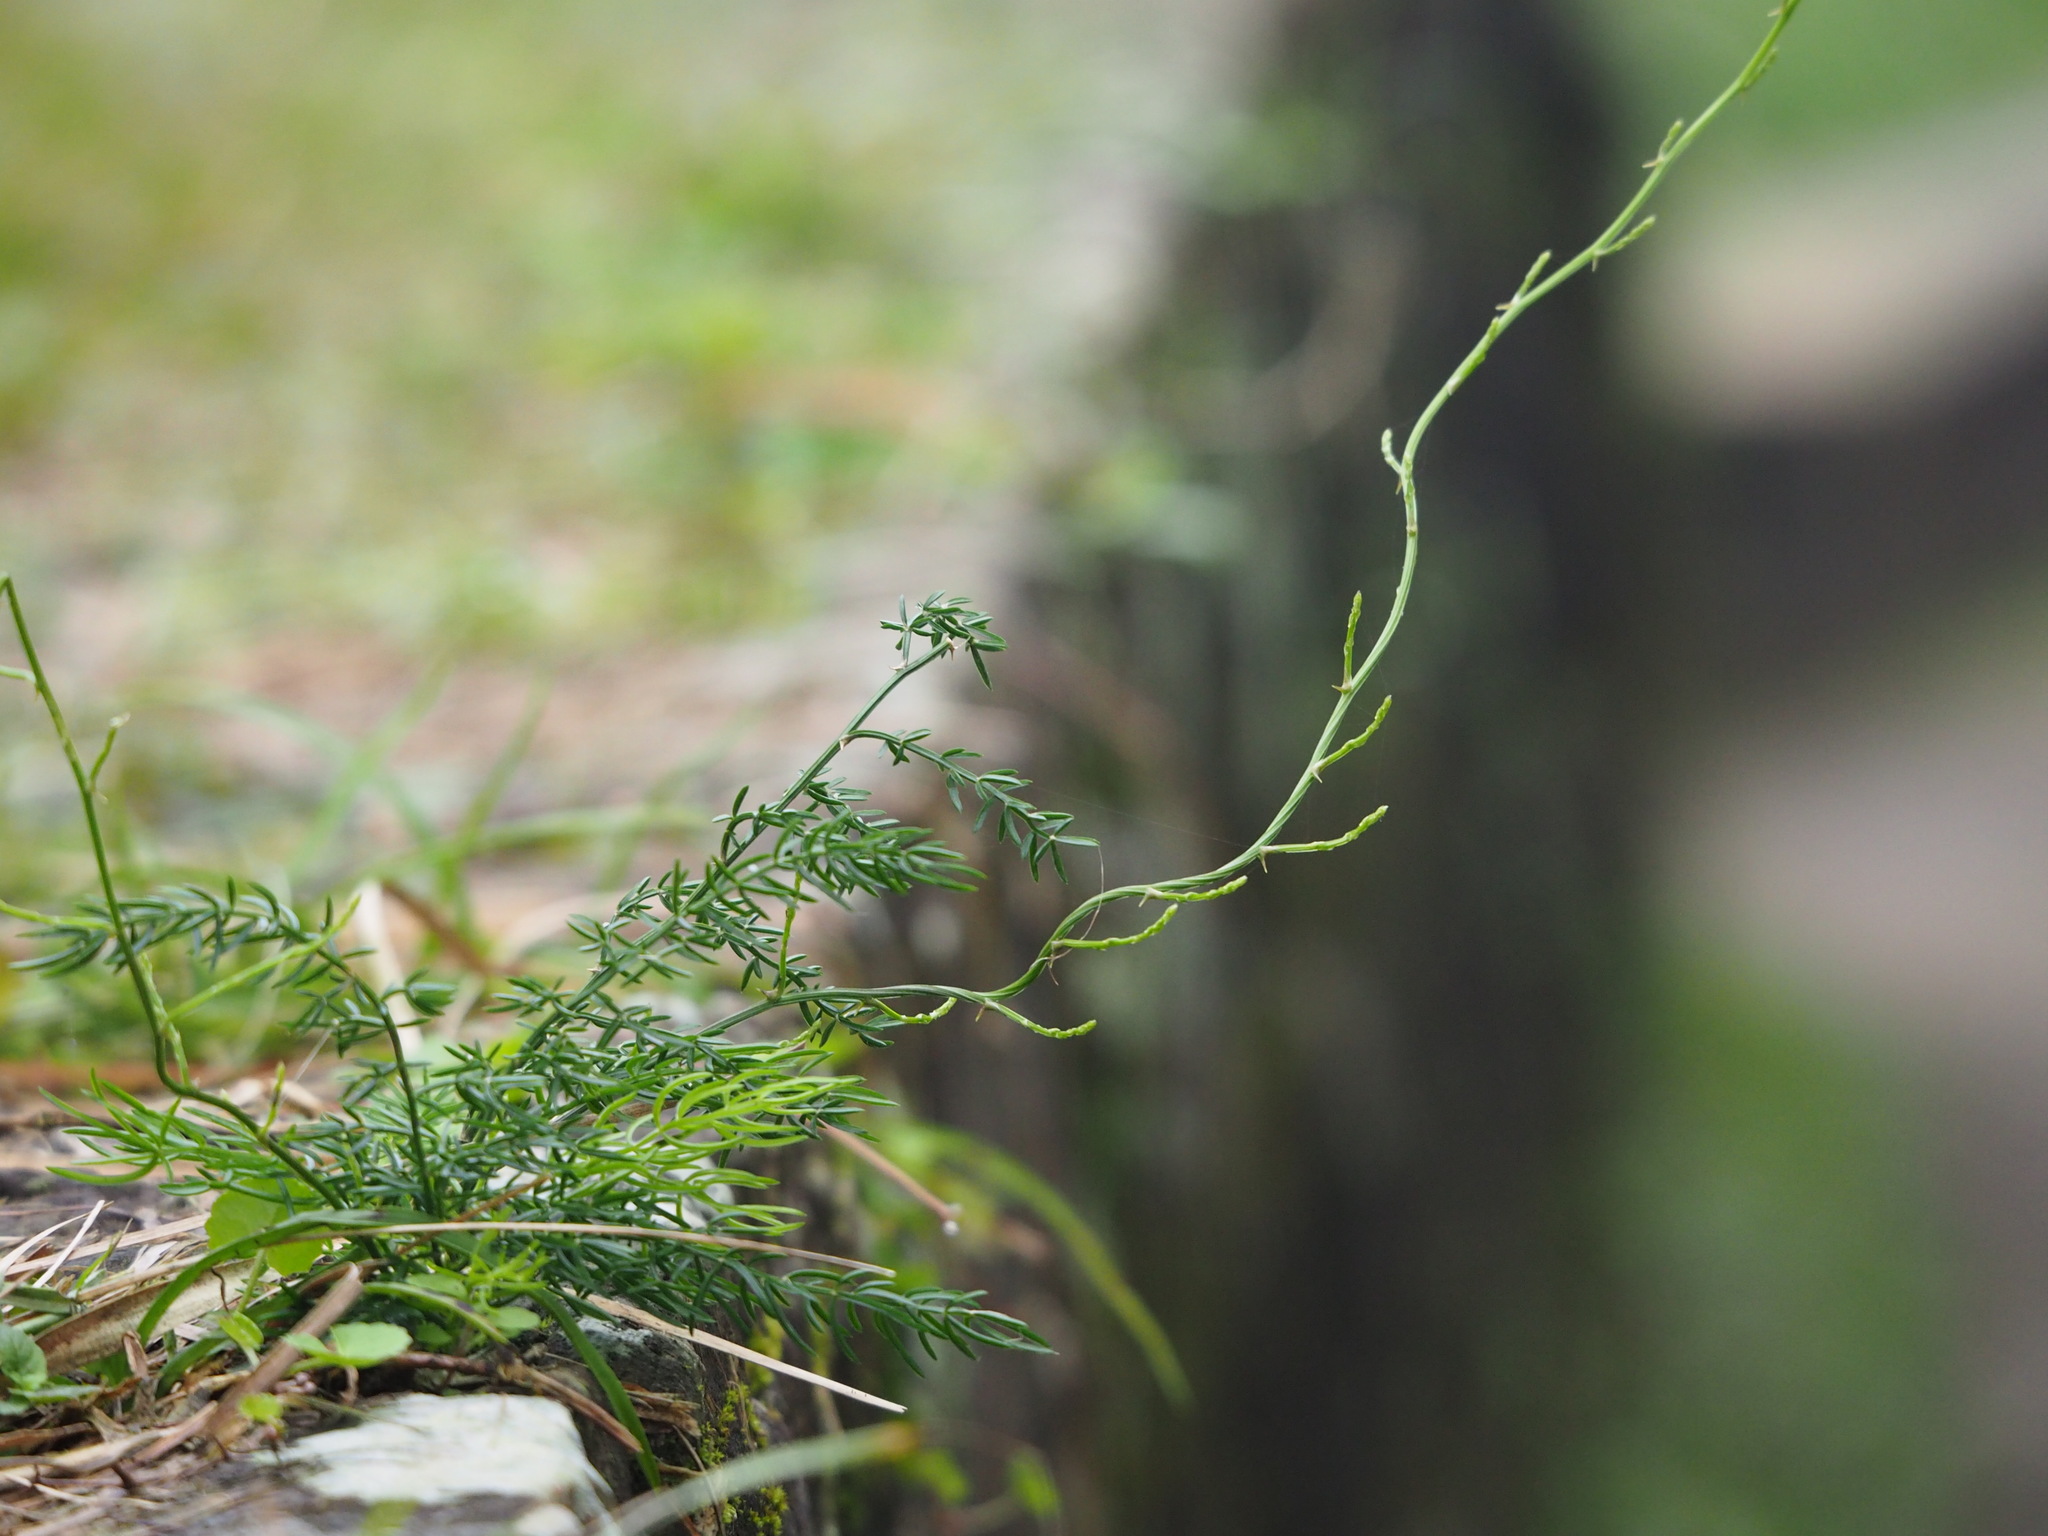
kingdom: Plantae
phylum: Tracheophyta
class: Liliopsida
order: Asparagales
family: Asparagaceae
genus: Asparagus
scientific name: Asparagus cochinchinensis
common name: Chinese asparagus
